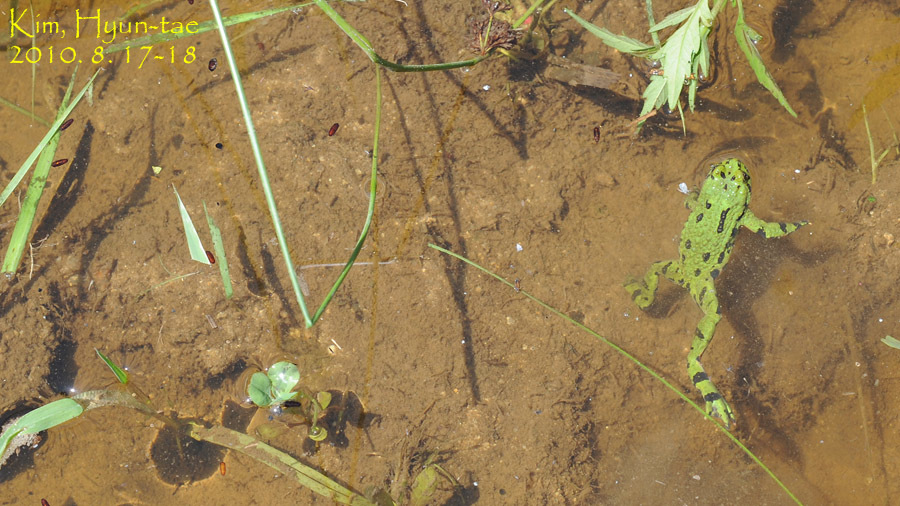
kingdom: Animalia
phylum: Chordata
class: Amphibia
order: Anura
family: Bombinatoridae
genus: Bombina
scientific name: Bombina orientalis
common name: Oriental firebelly toad
